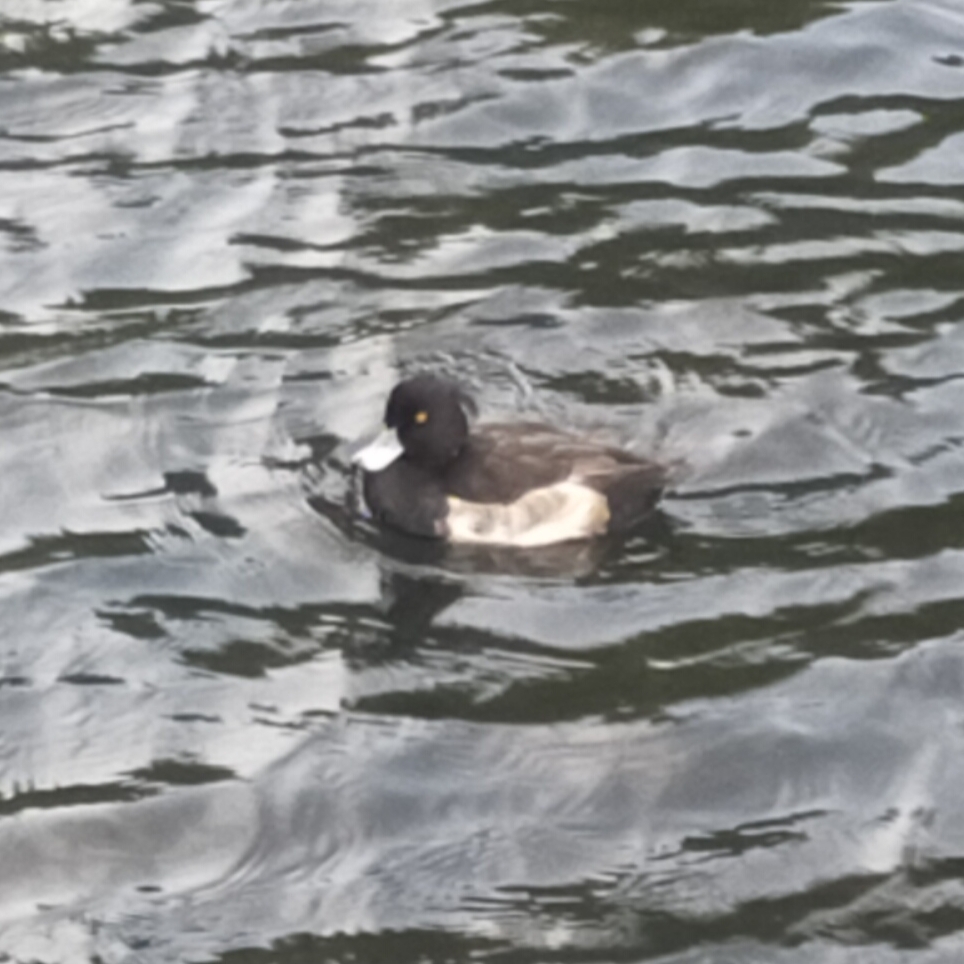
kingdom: Animalia
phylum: Chordata
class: Aves
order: Anseriformes
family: Anatidae
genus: Aythya
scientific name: Aythya fuligula
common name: Tufted duck
